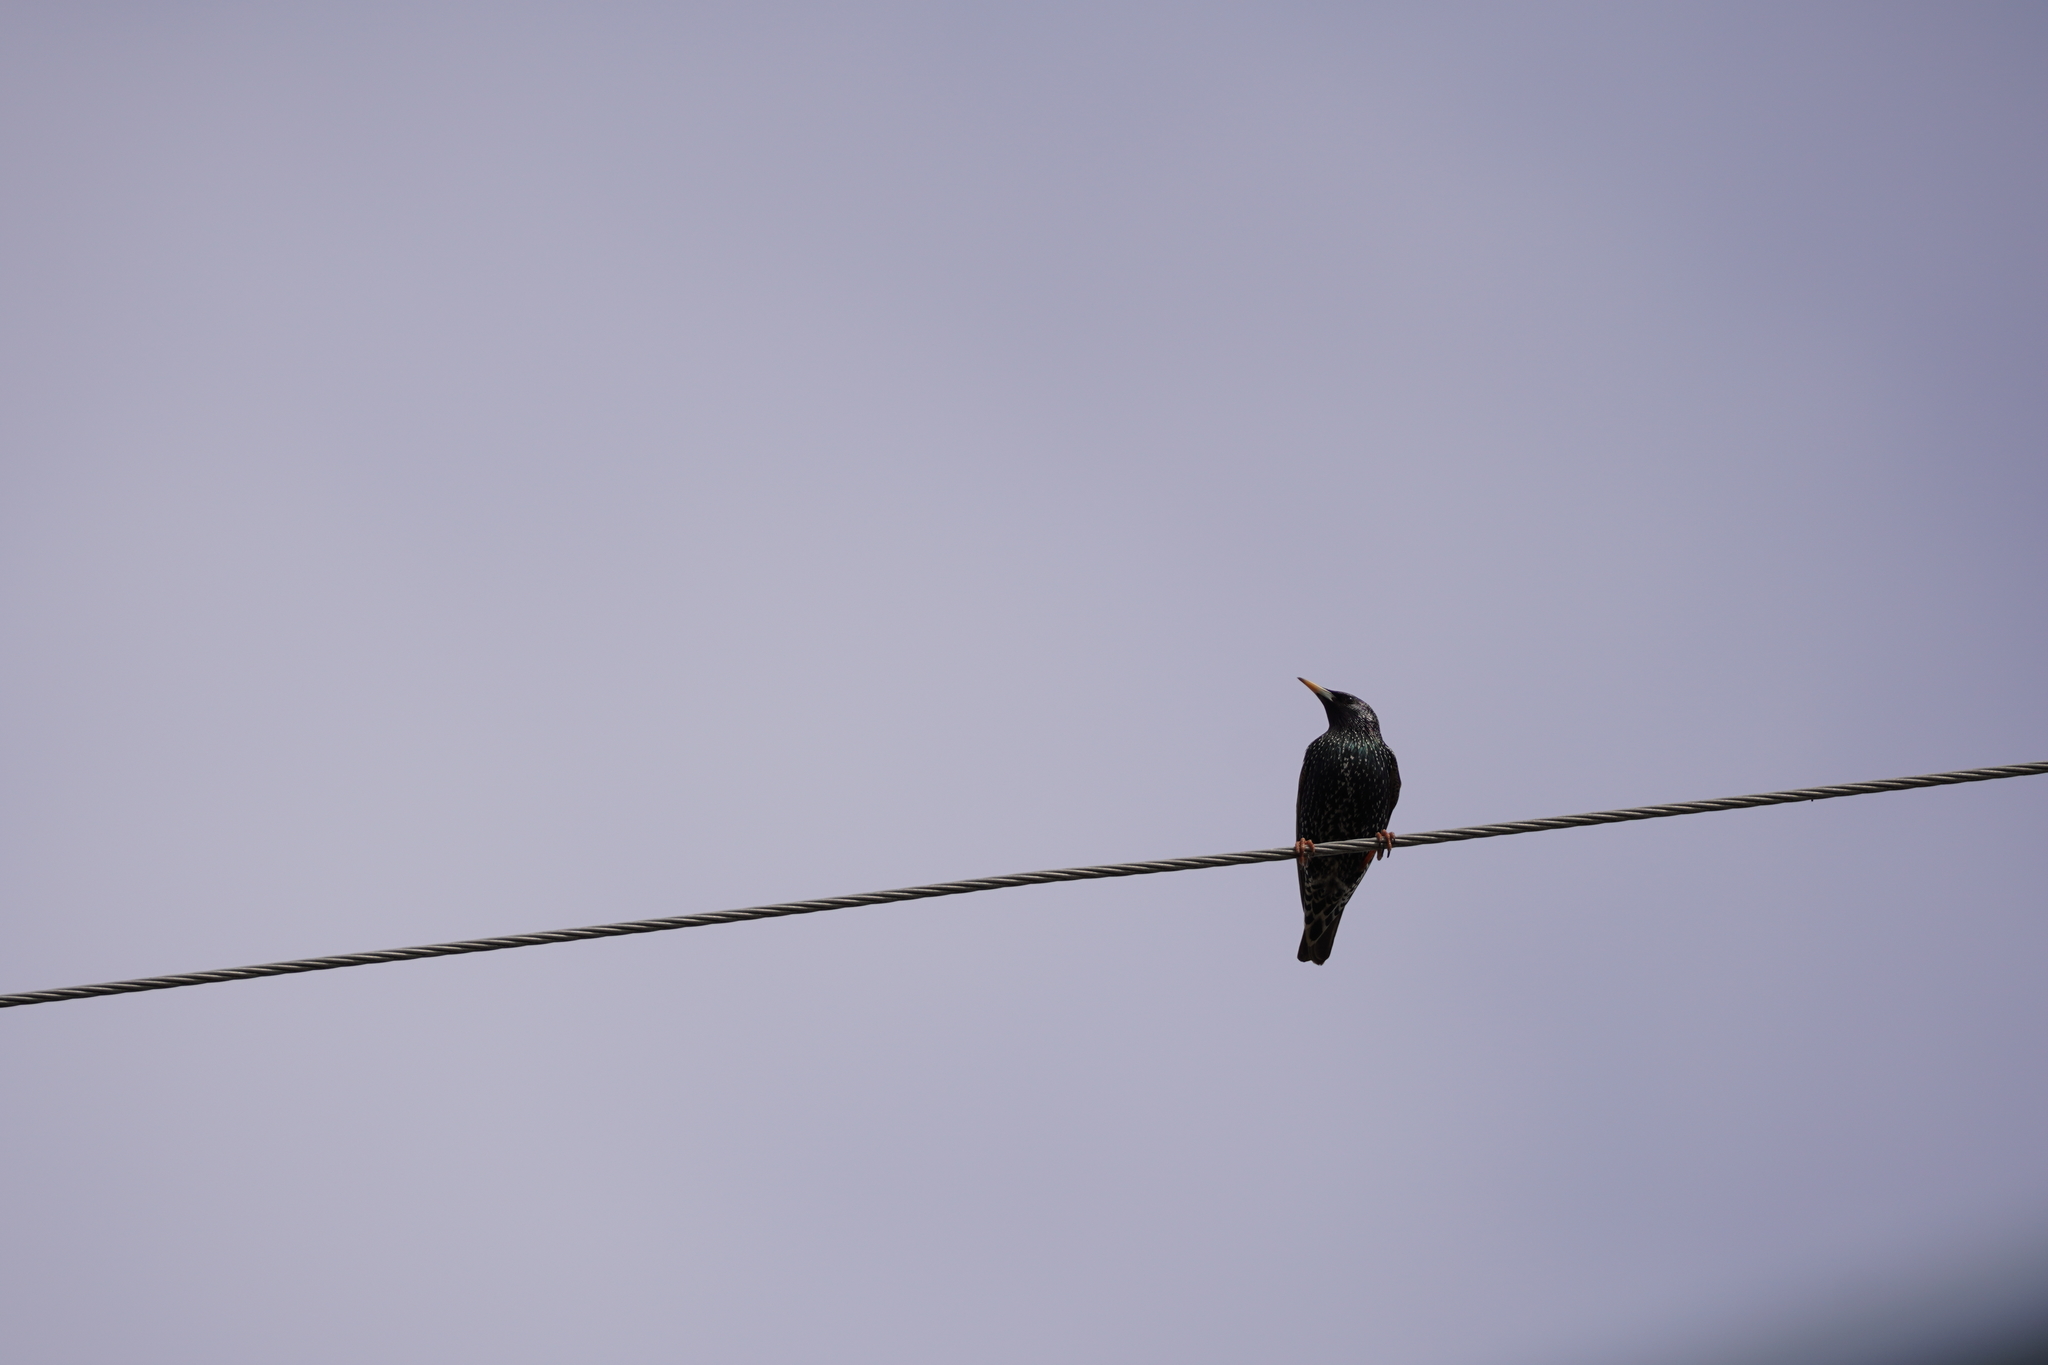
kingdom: Animalia
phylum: Chordata
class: Aves
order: Passeriformes
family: Sturnidae
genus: Sturnus
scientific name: Sturnus vulgaris
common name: Common starling
